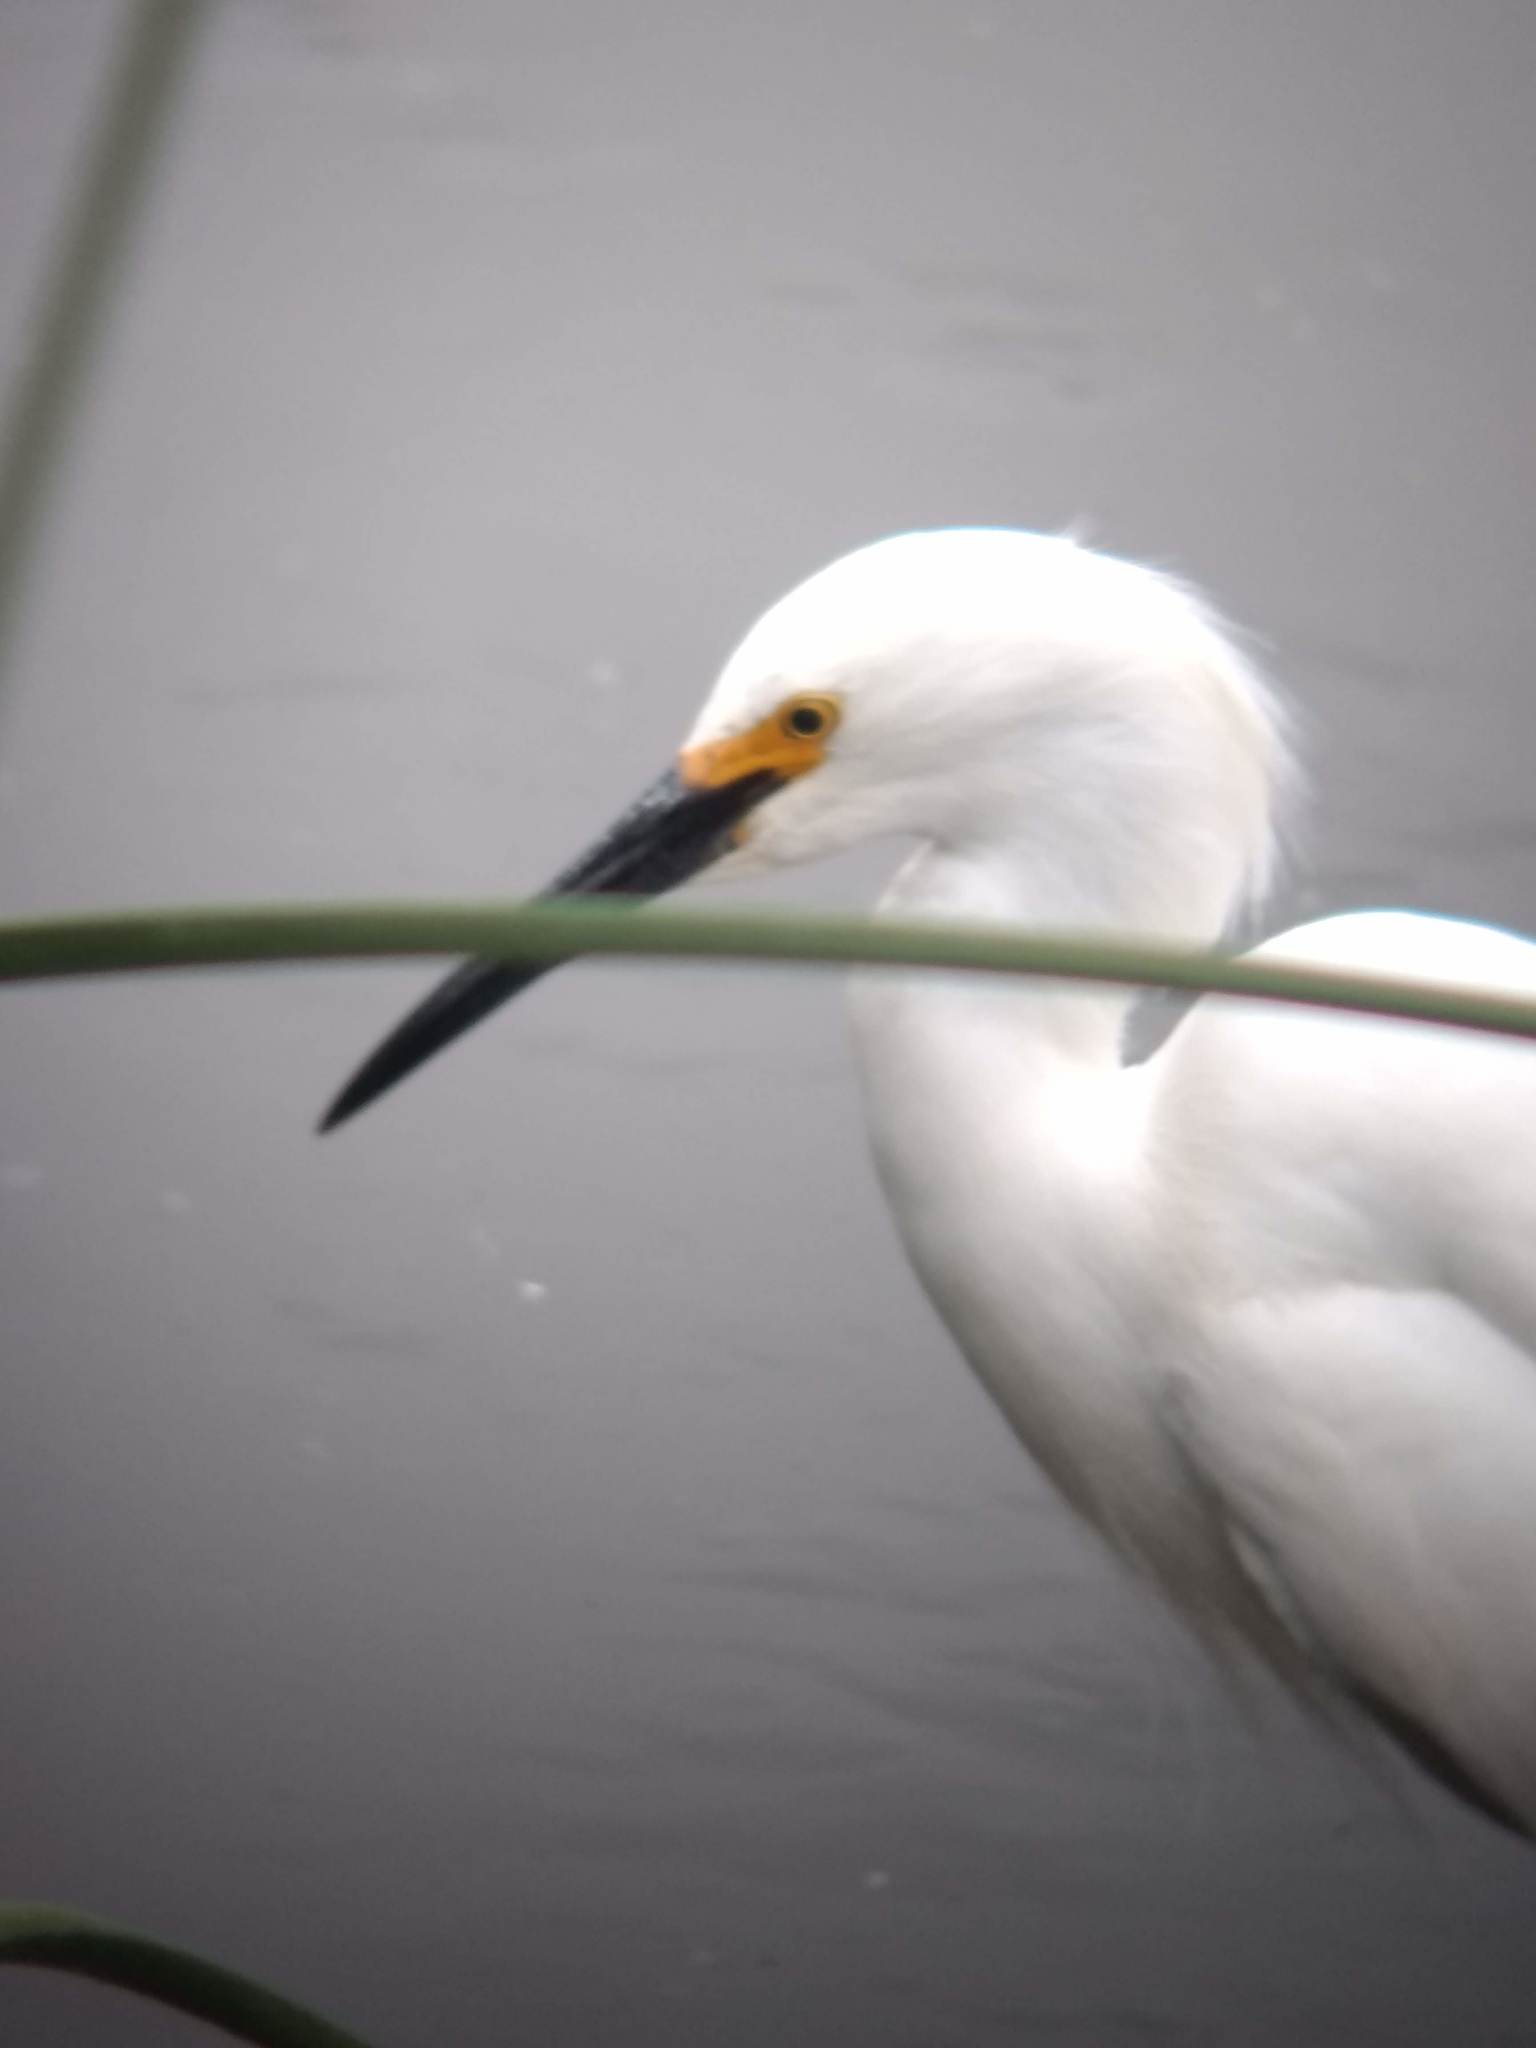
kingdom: Animalia
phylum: Chordata
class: Aves
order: Pelecaniformes
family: Ardeidae
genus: Egretta
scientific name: Egretta thula
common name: Snowy egret
